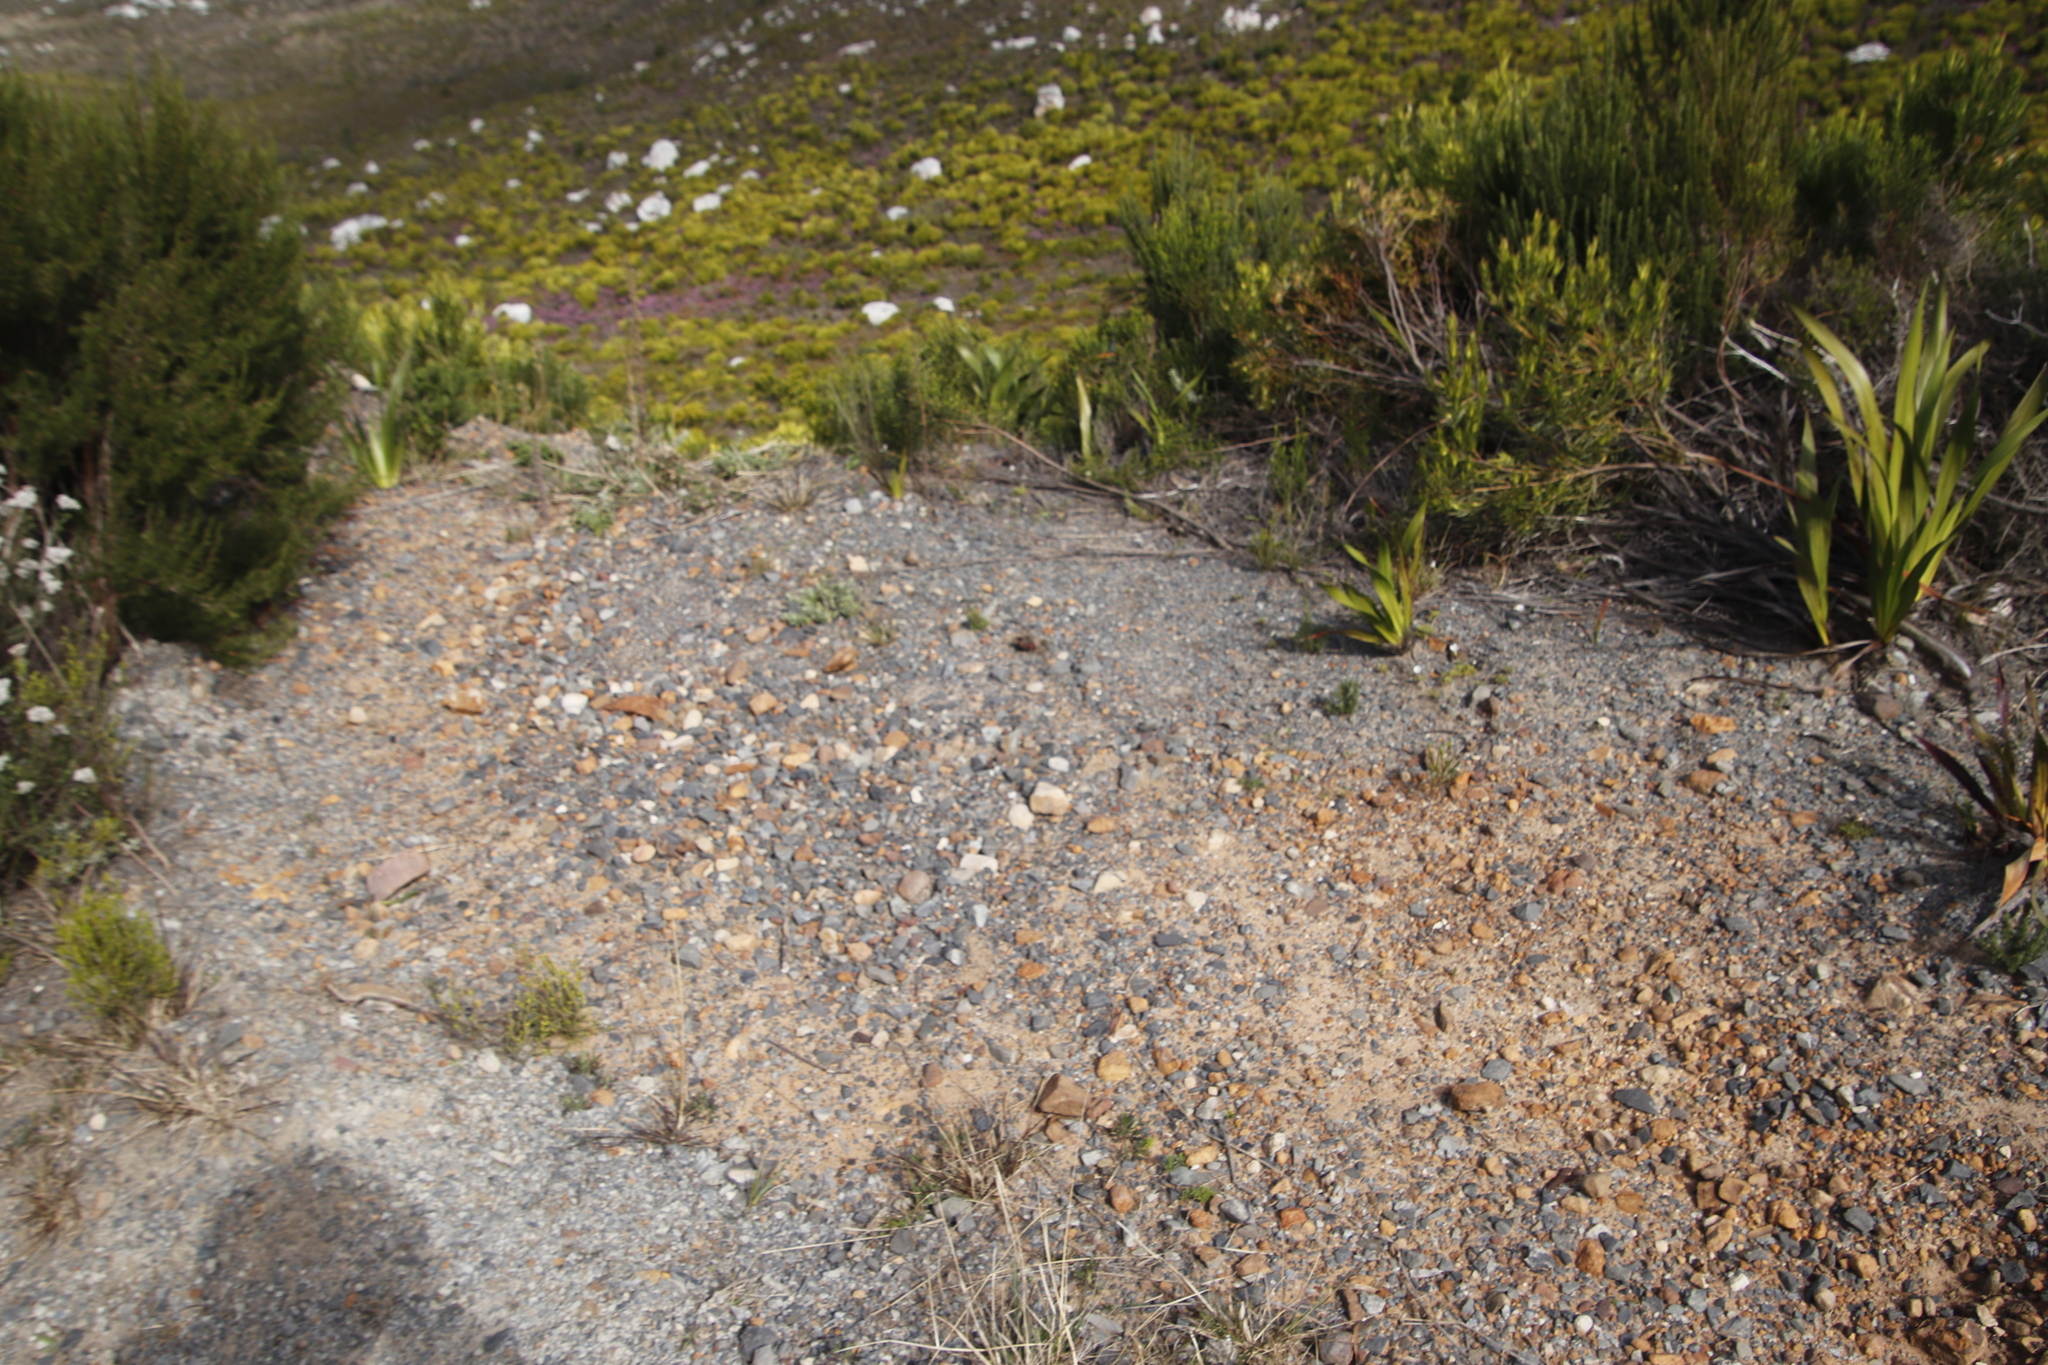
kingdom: Plantae
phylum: Tracheophyta
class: Magnoliopsida
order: Oxalidales
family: Oxalidaceae
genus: Oxalis
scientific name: Oxalis lanata
